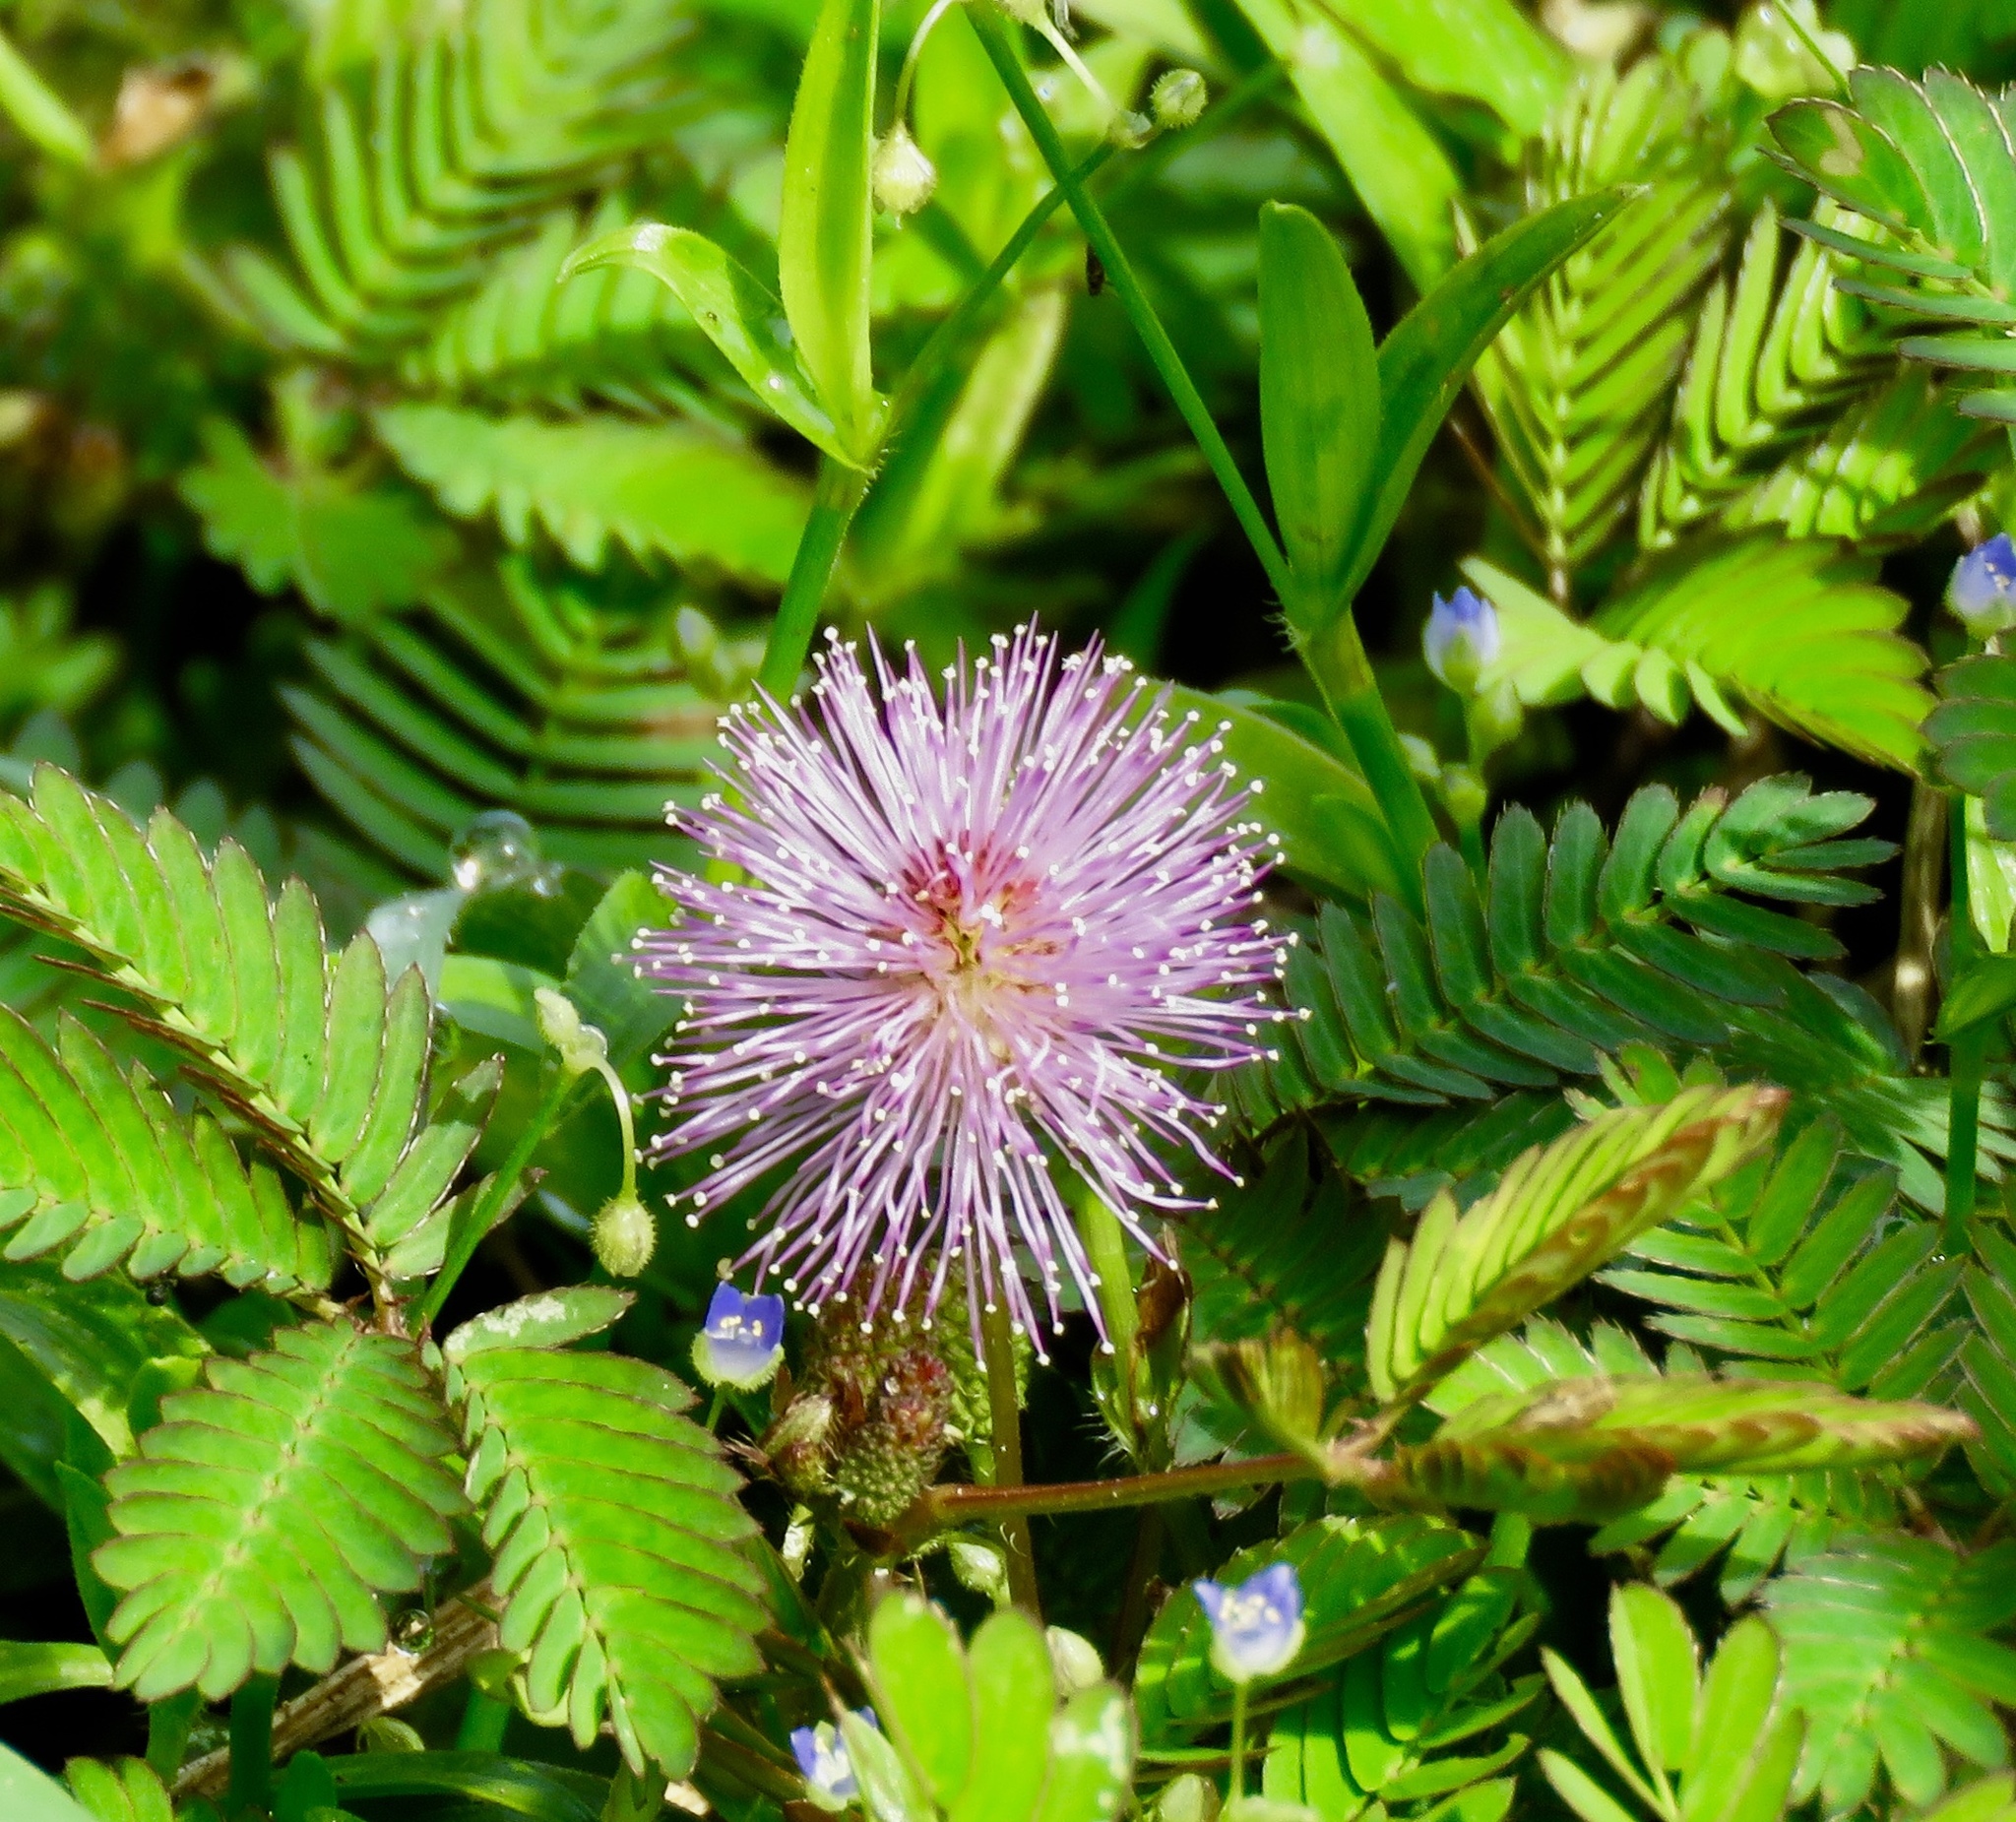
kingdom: Plantae
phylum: Tracheophyta
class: Magnoliopsida
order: Fabales
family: Fabaceae
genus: Mimosa
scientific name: Mimosa pudica
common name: Sensitive plant
